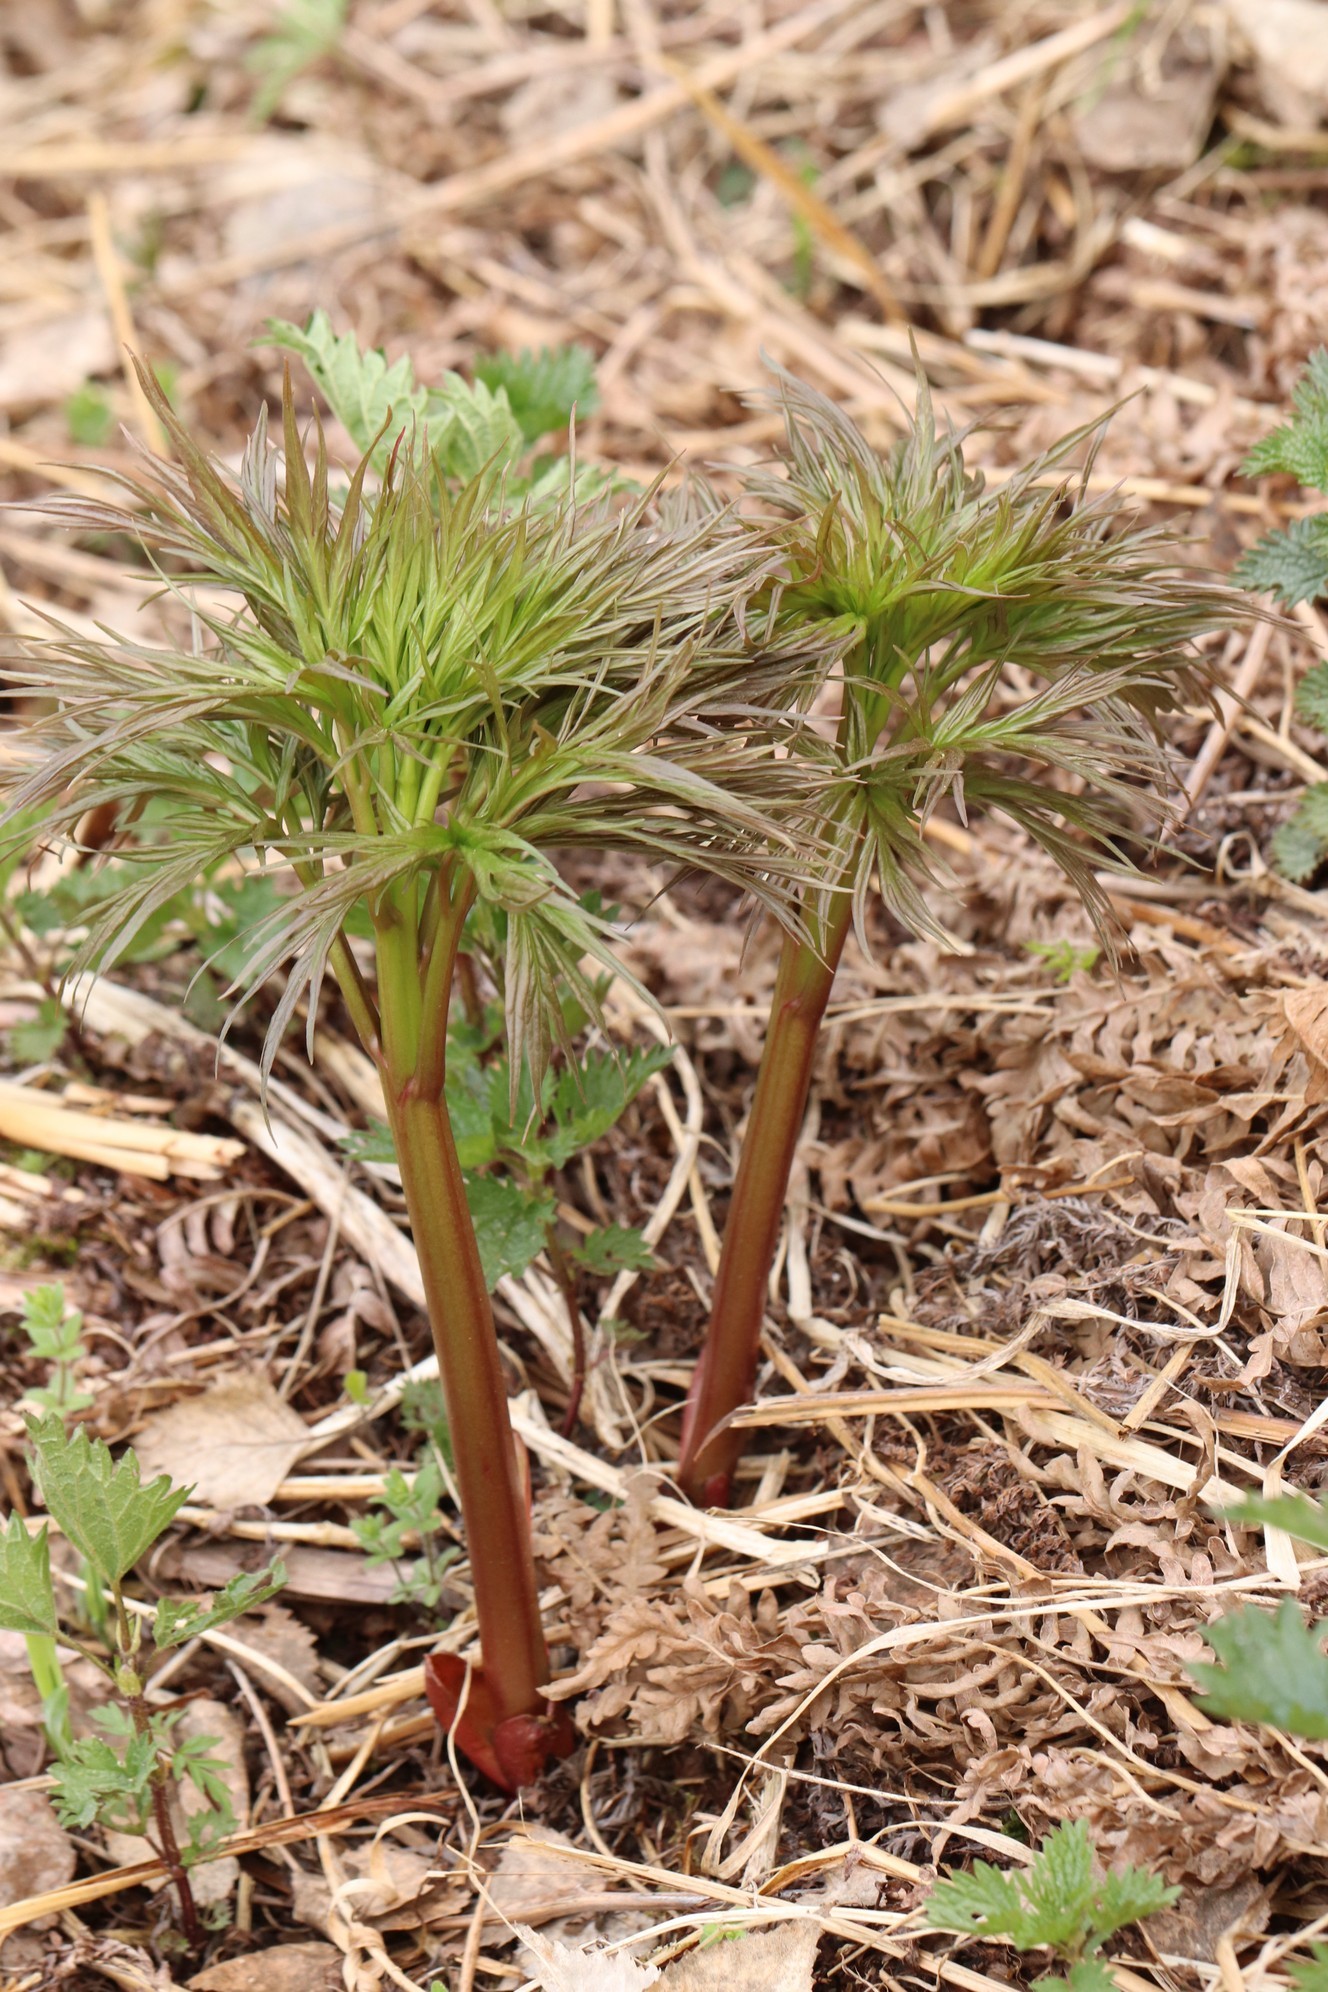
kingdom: Plantae
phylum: Tracheophyta
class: Magnoliopsida
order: Saxifragales
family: Paeoniaceae
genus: Paeonia
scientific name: Paeonia anomala
